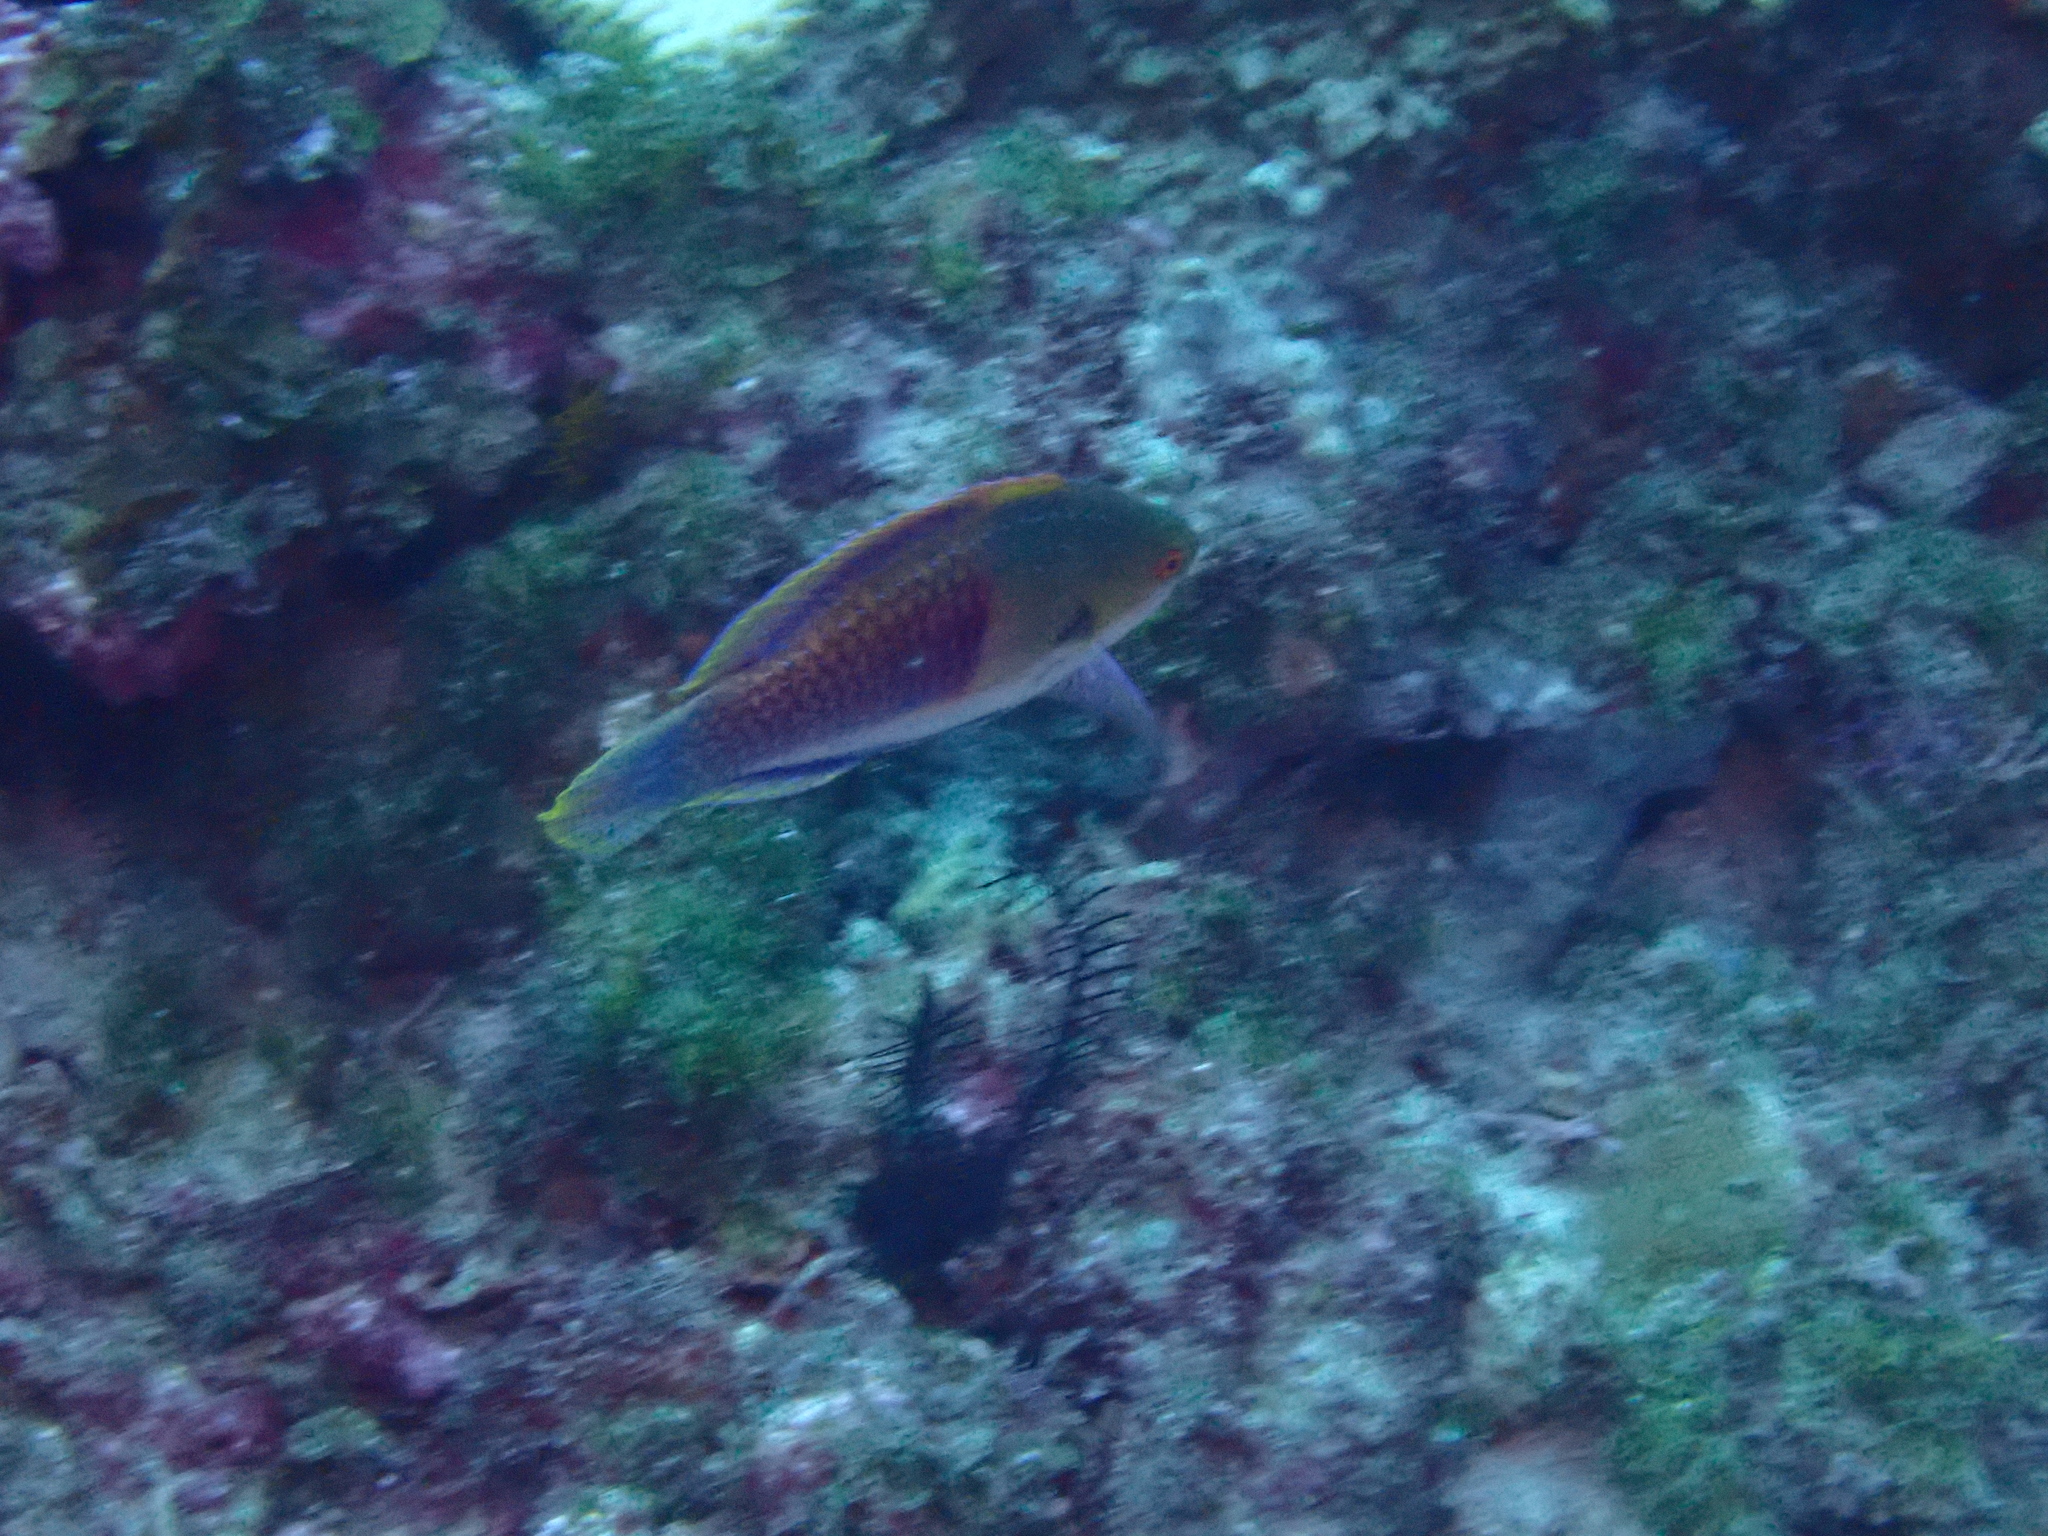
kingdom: Animalia
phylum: Chordata
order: Perciformes
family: Labridae
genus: Cirrhilabrus
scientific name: Cirrhilabrus cyanopleura
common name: Coralline wrasse
